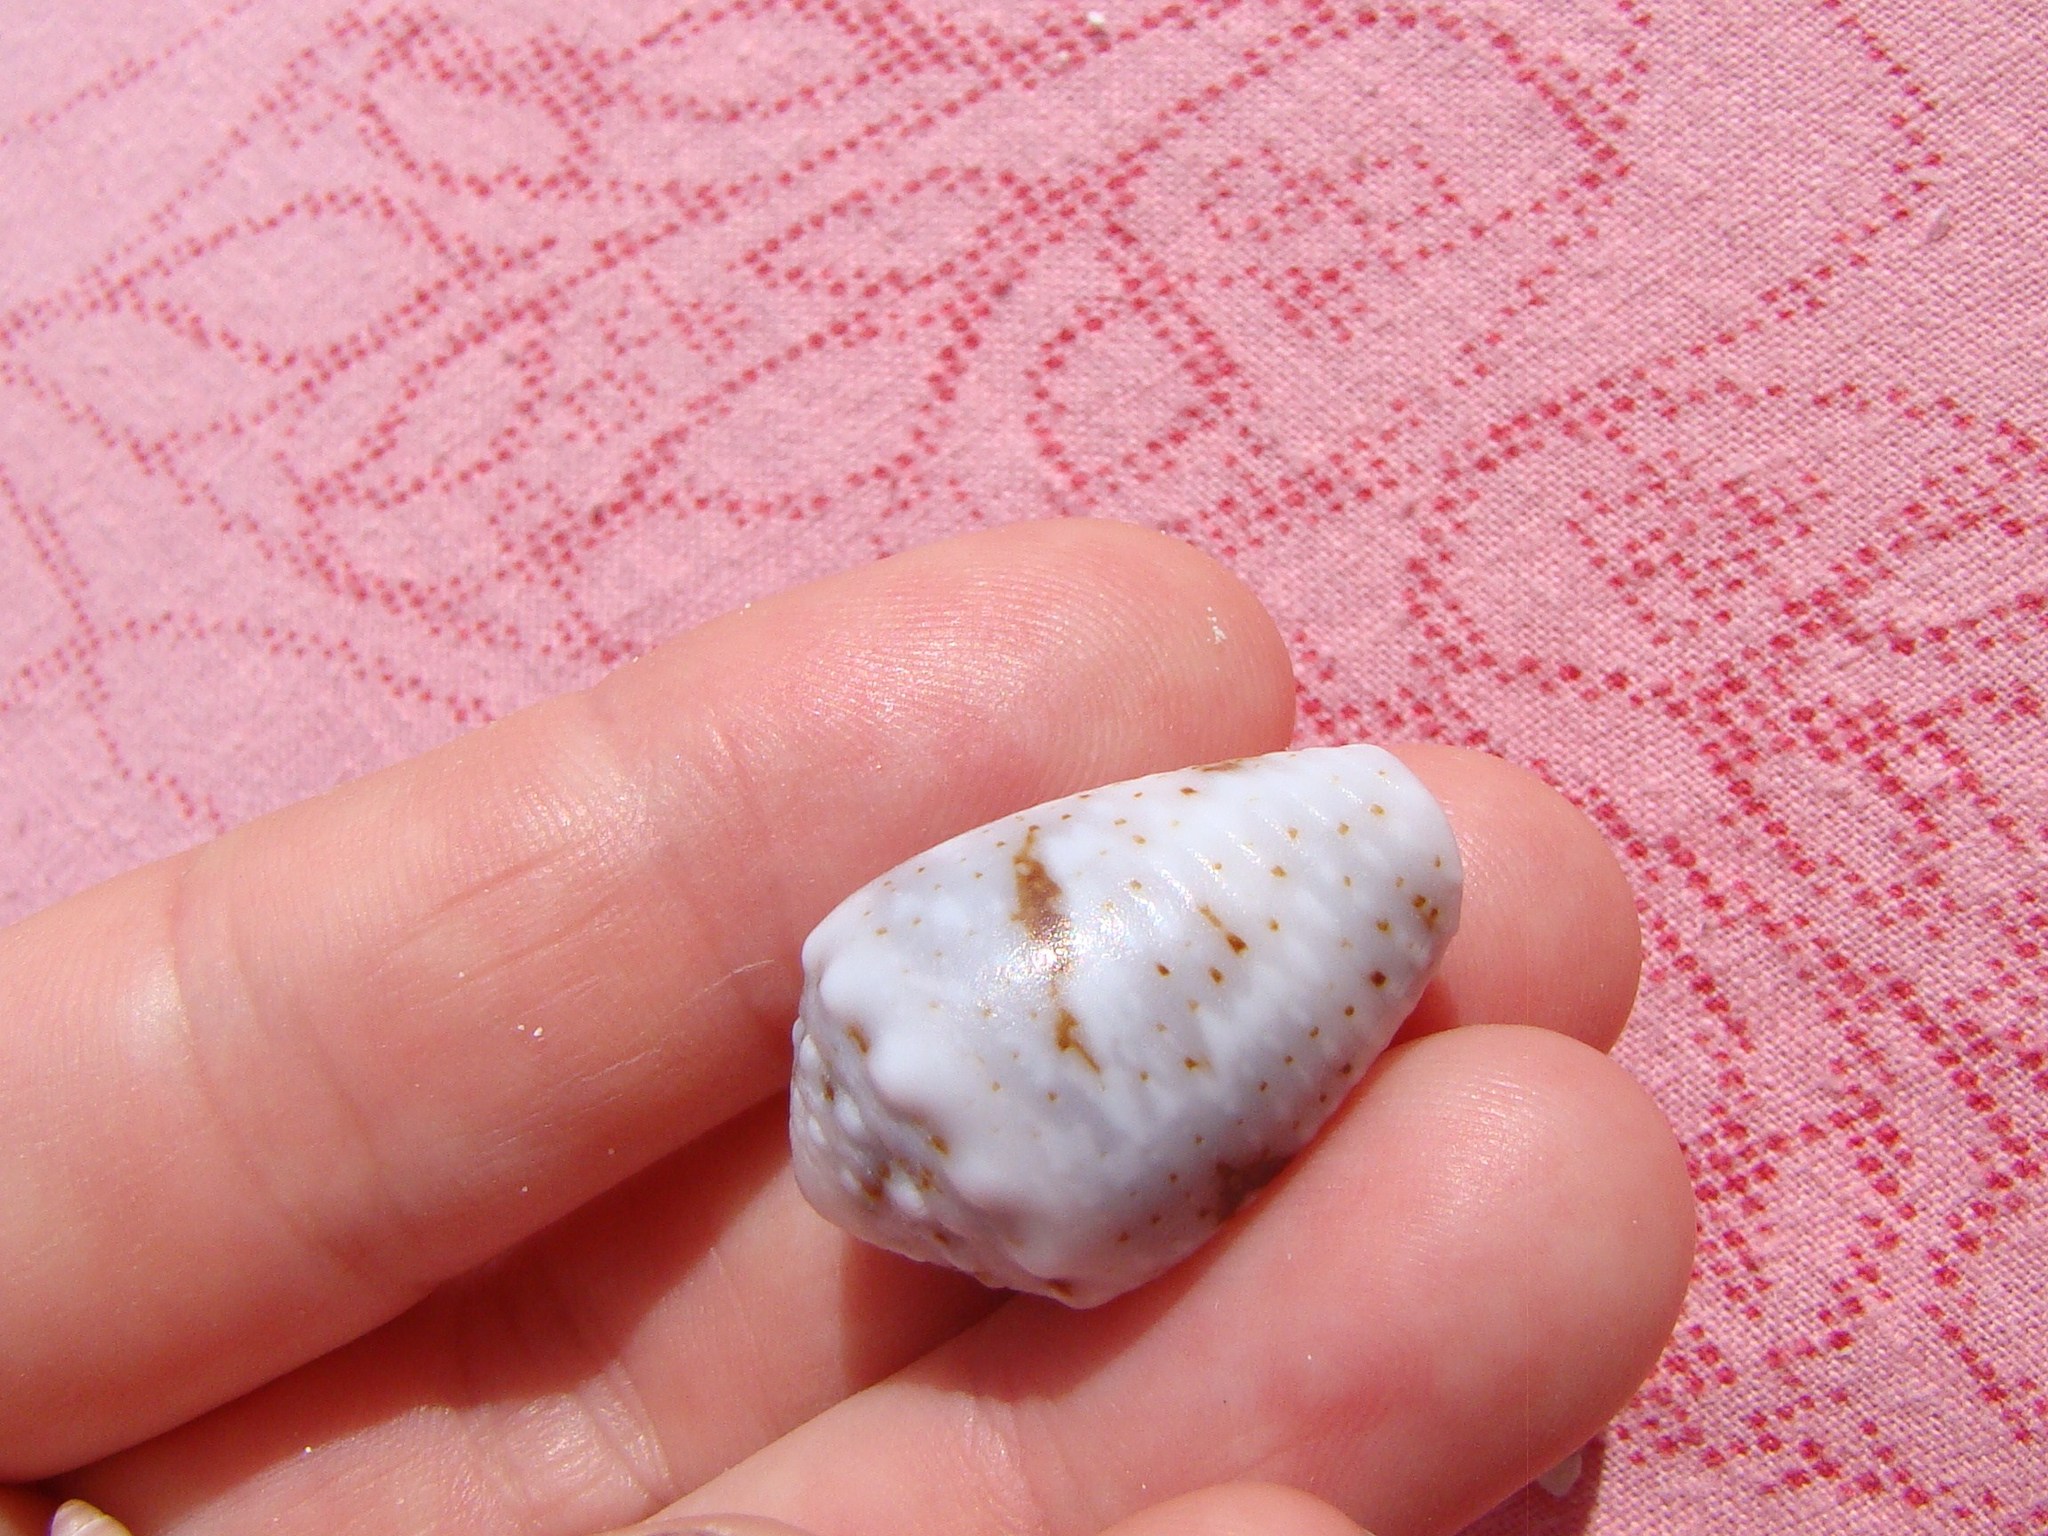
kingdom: Animalia
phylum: Mollusca
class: Gastropoda
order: Neogastropoda
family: Conidae
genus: Conus
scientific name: Conus coronatus
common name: Coronated cone
